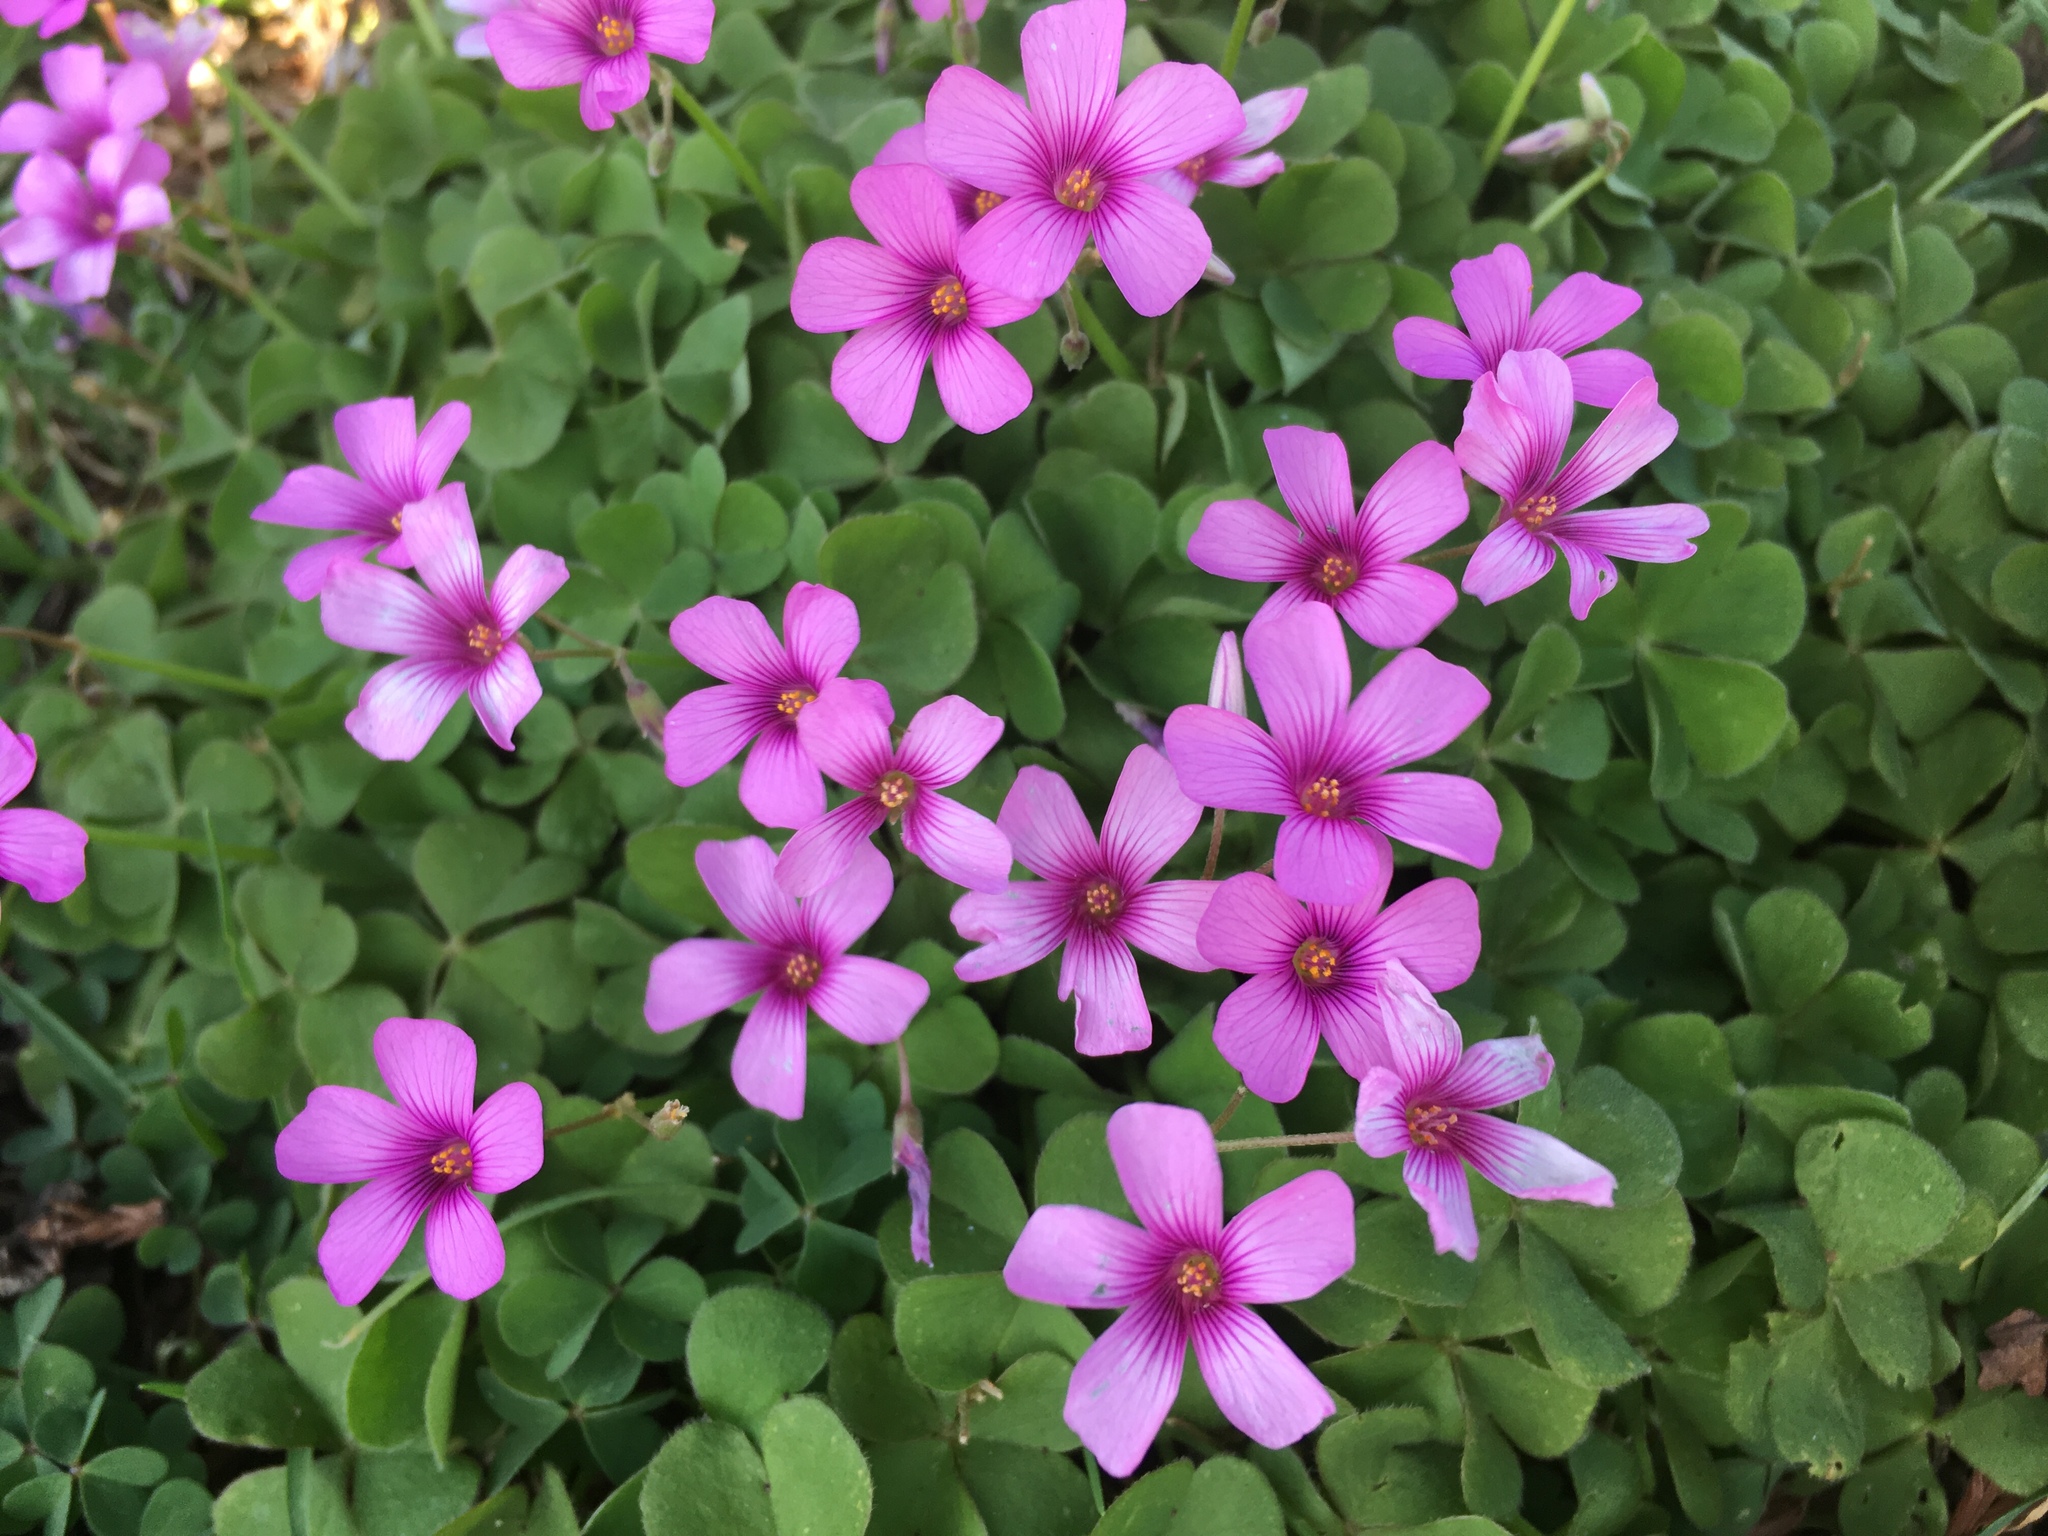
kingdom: Plantae
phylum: Tracheophyta
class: Magnoliopsida
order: Oxalidales
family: Oxalidaceae
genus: Oxalis
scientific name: Oxalis articulata
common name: Pink-sorrel
